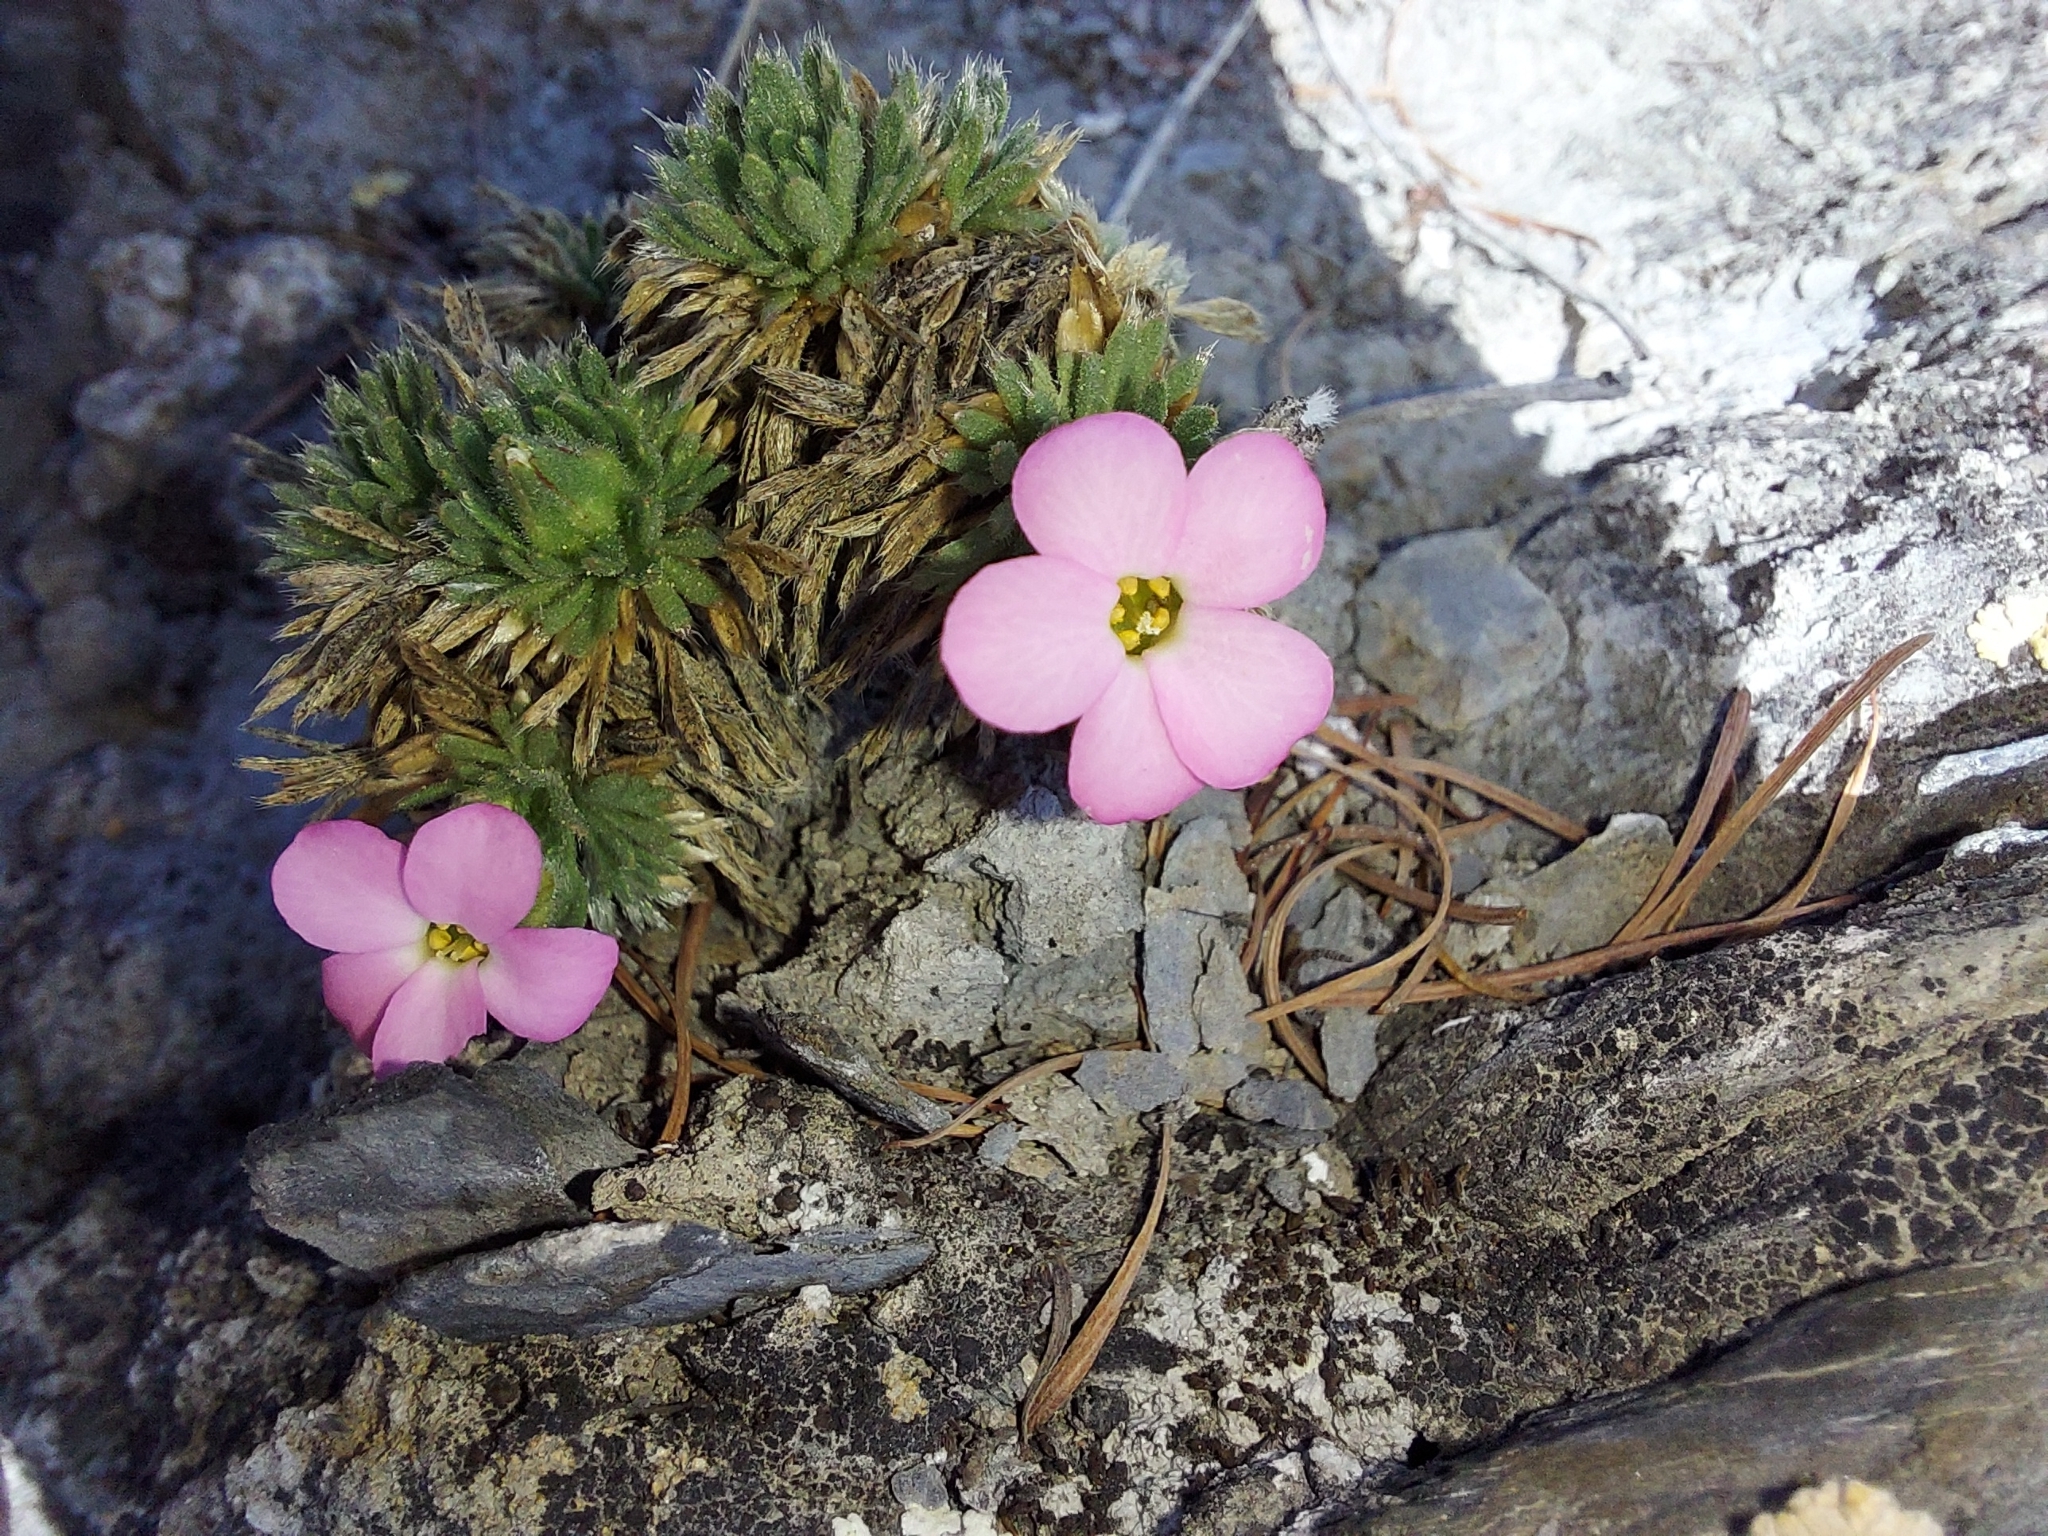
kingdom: Plantae
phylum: Tracheophyta
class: Magnoliopsida
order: Rosales
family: Rosaceae
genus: Chamaerhodos
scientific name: Chamaerhodos altaica
